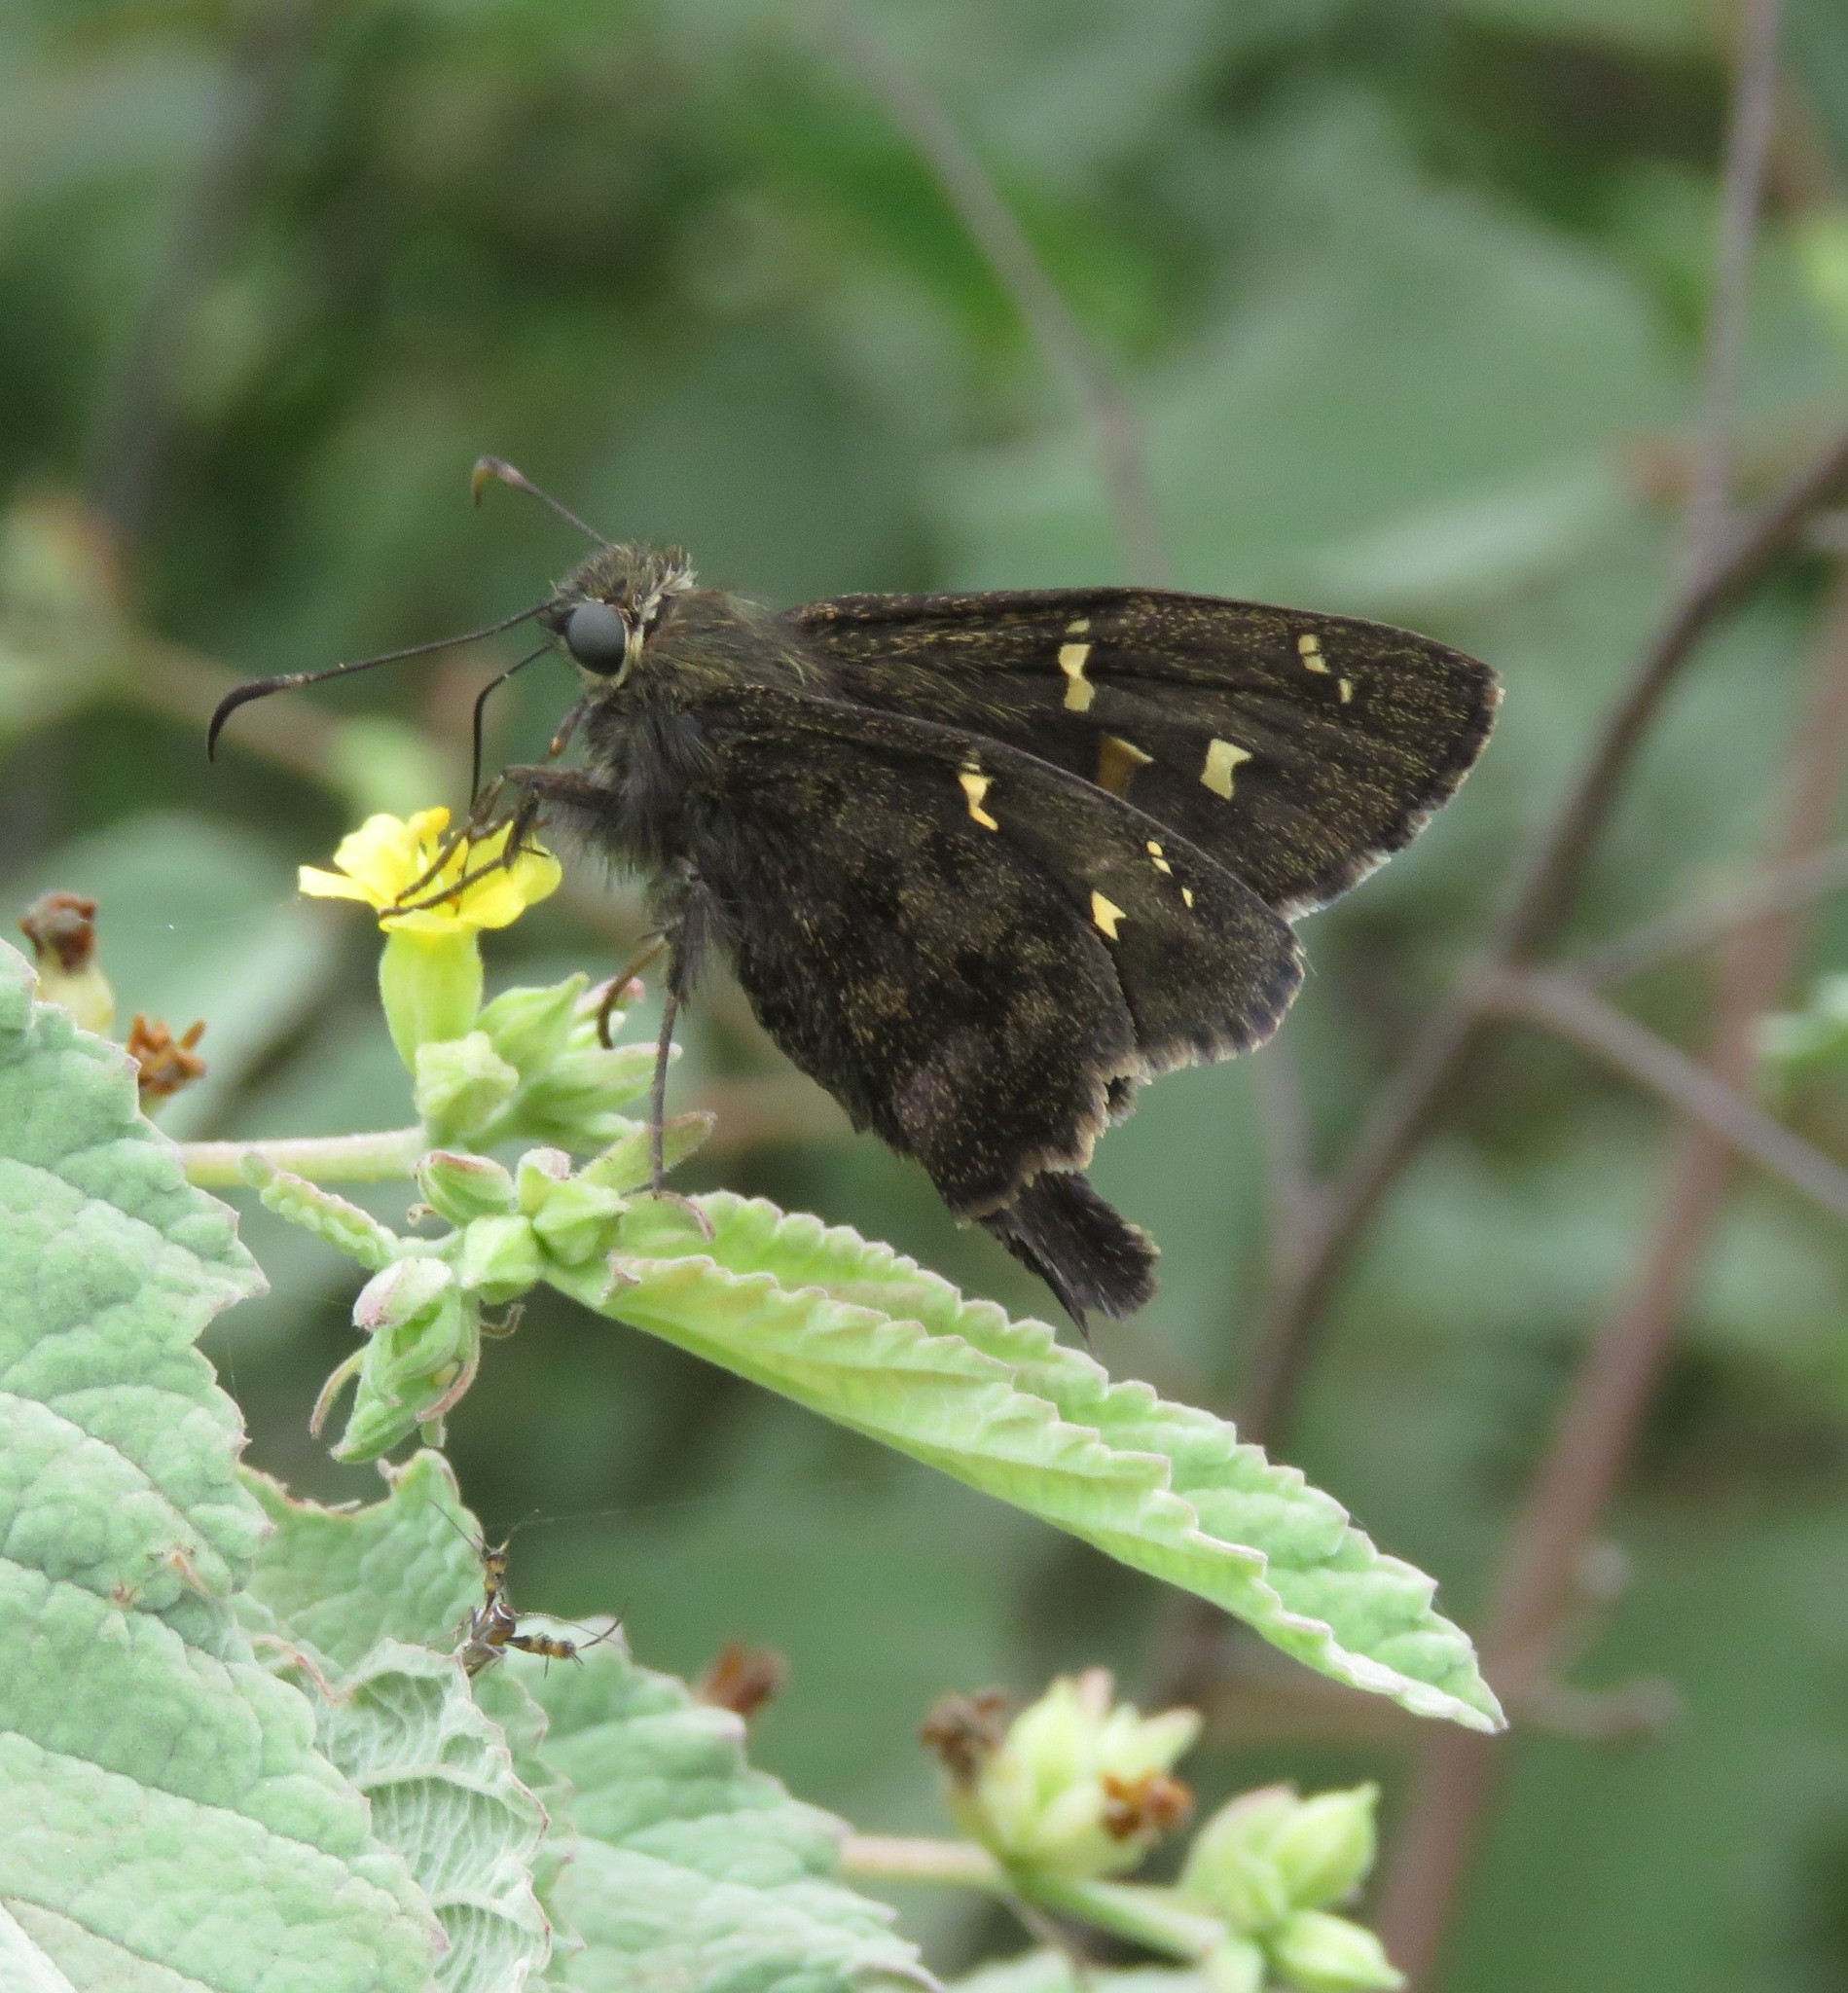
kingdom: Animalia
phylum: Arthropoda
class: Insecta
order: Lepidoptera
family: Hesperiidae
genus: Thorybes
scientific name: Thorybes
